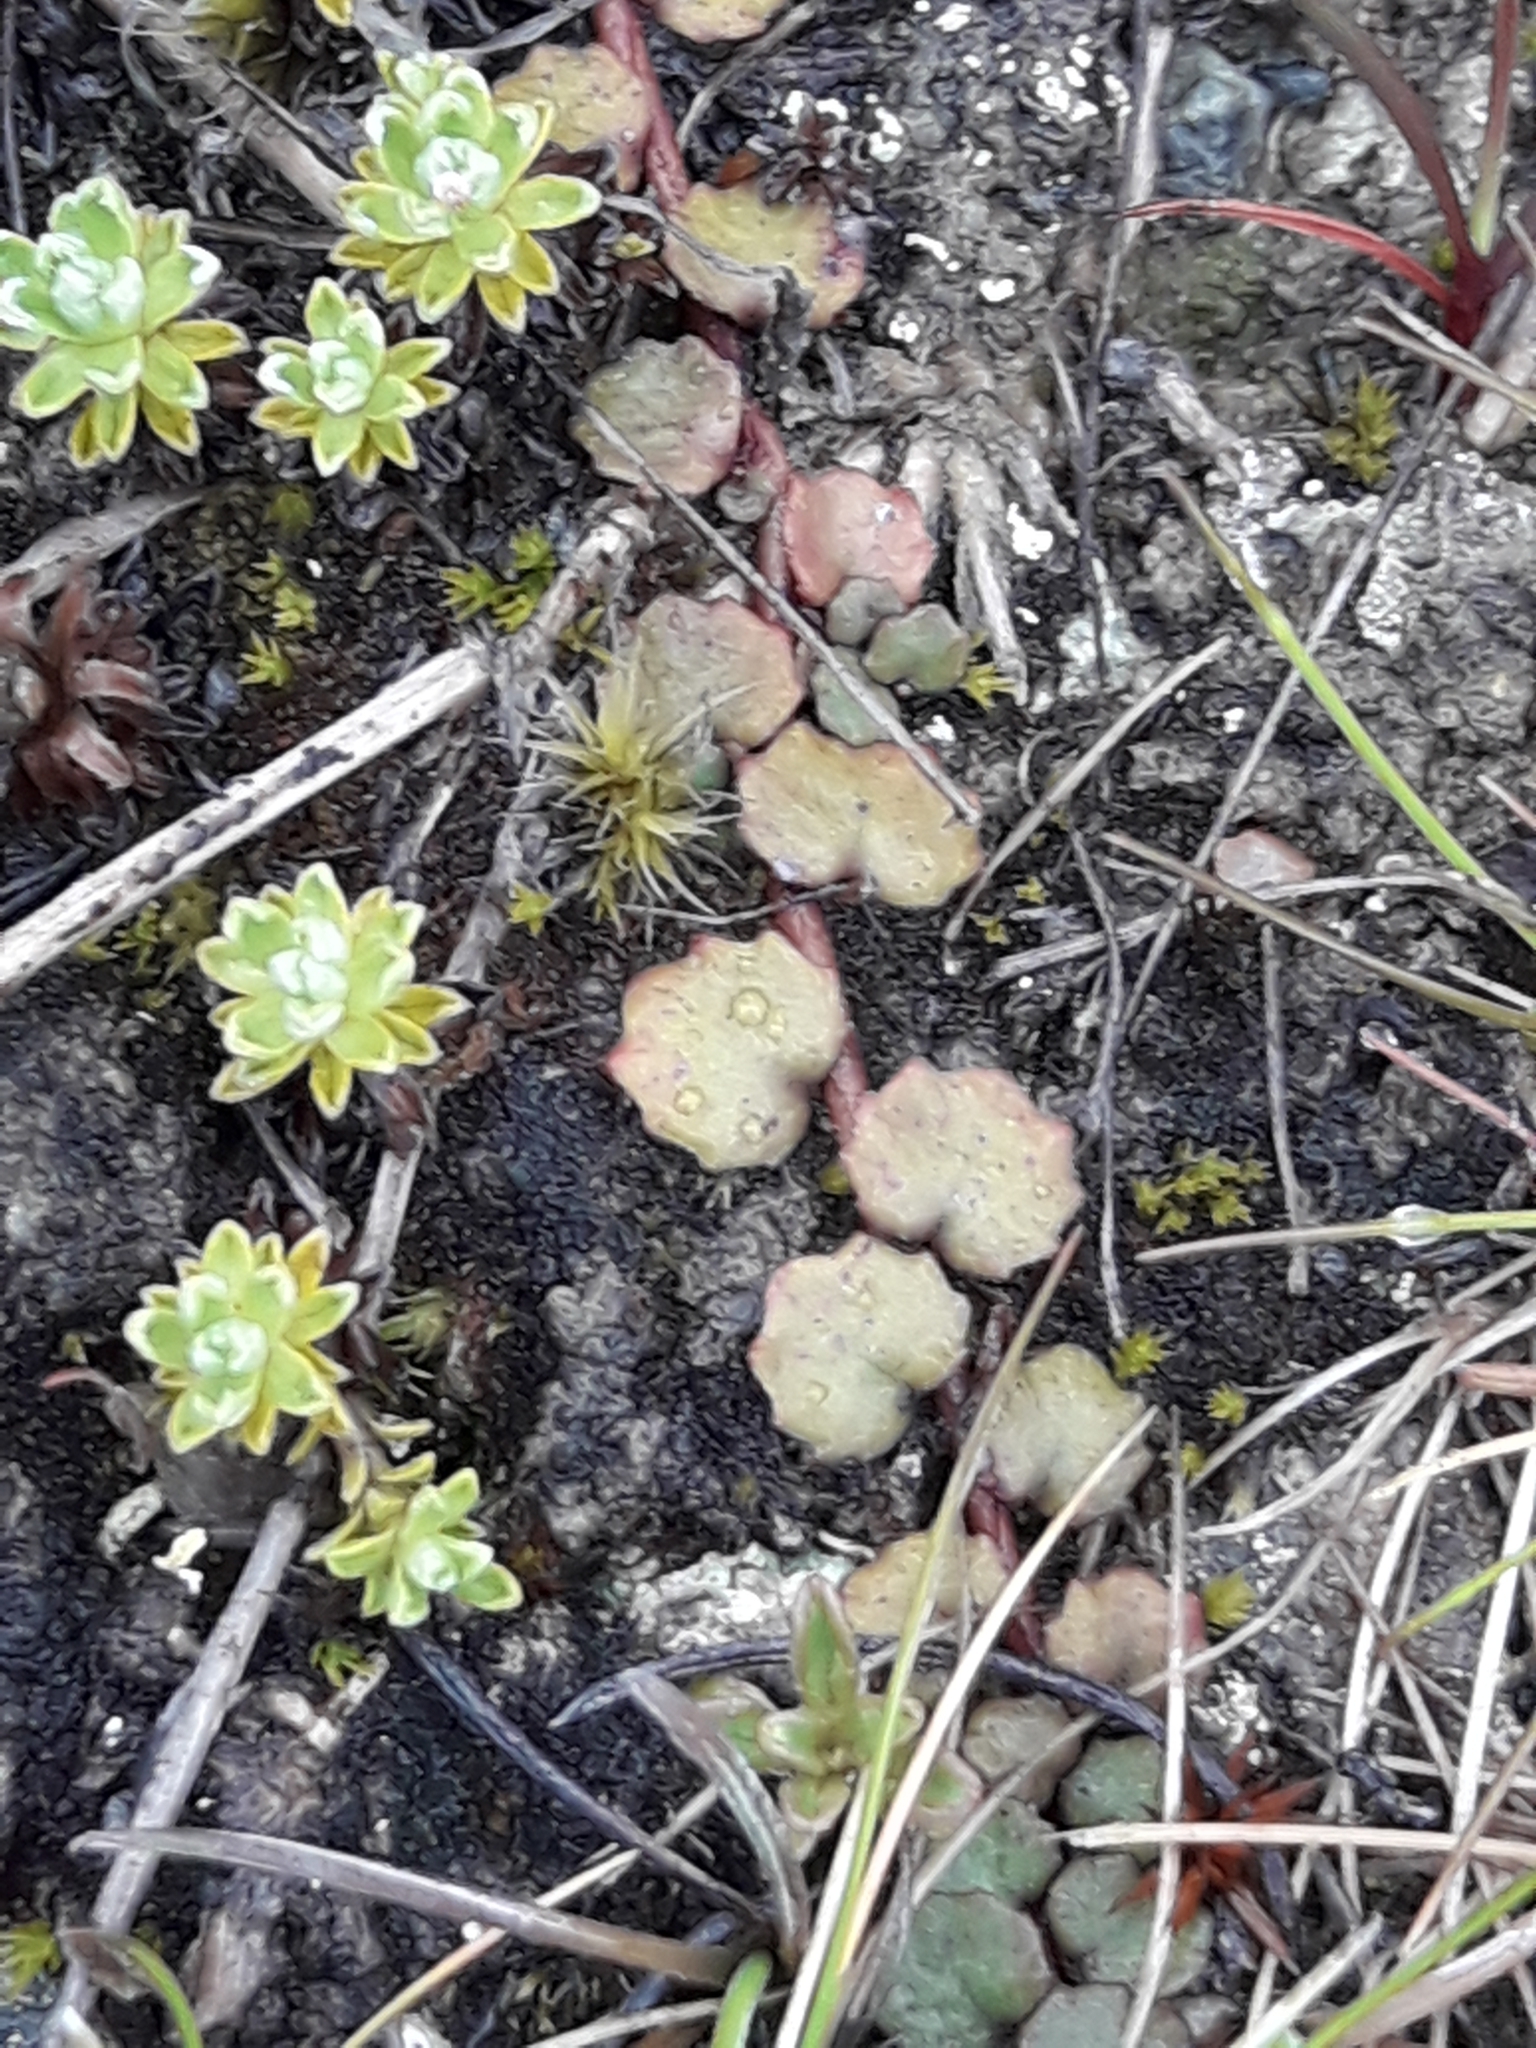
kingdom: Plantae
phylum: Tracheophyta
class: Magnoliopsida
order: Asterales
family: Campanulaceae
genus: Lobelia
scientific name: Lobelia angulata
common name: Lawn lobelia
